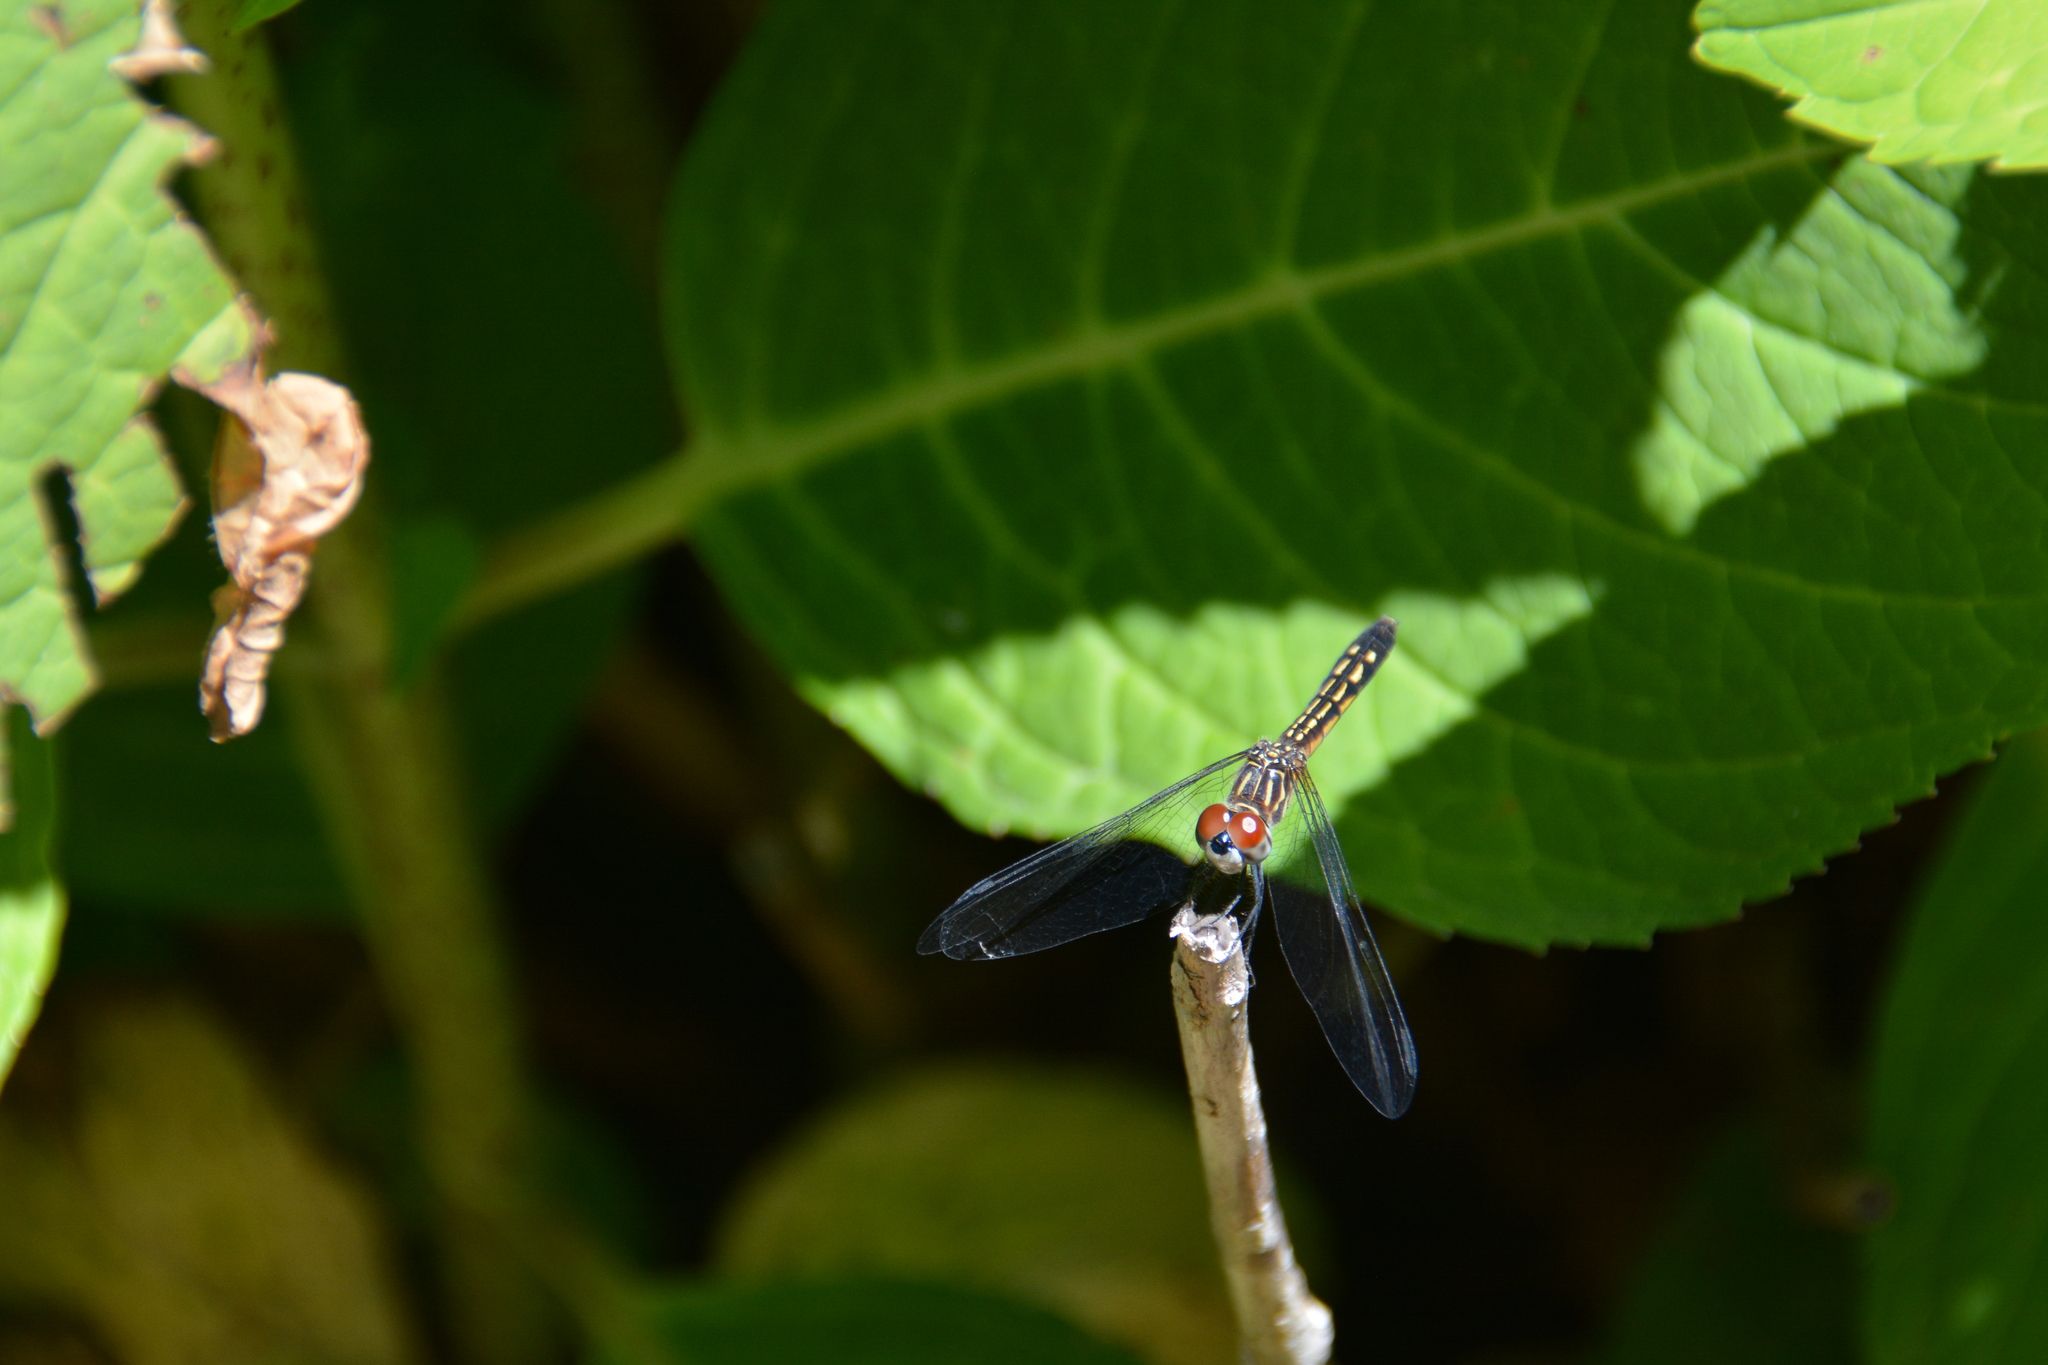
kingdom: Animalia
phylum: Arthropoda
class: Insecta
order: Odonata
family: Libellulidae
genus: Pachydiplax
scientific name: Pachydiplax longipennis
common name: Blue dasher
